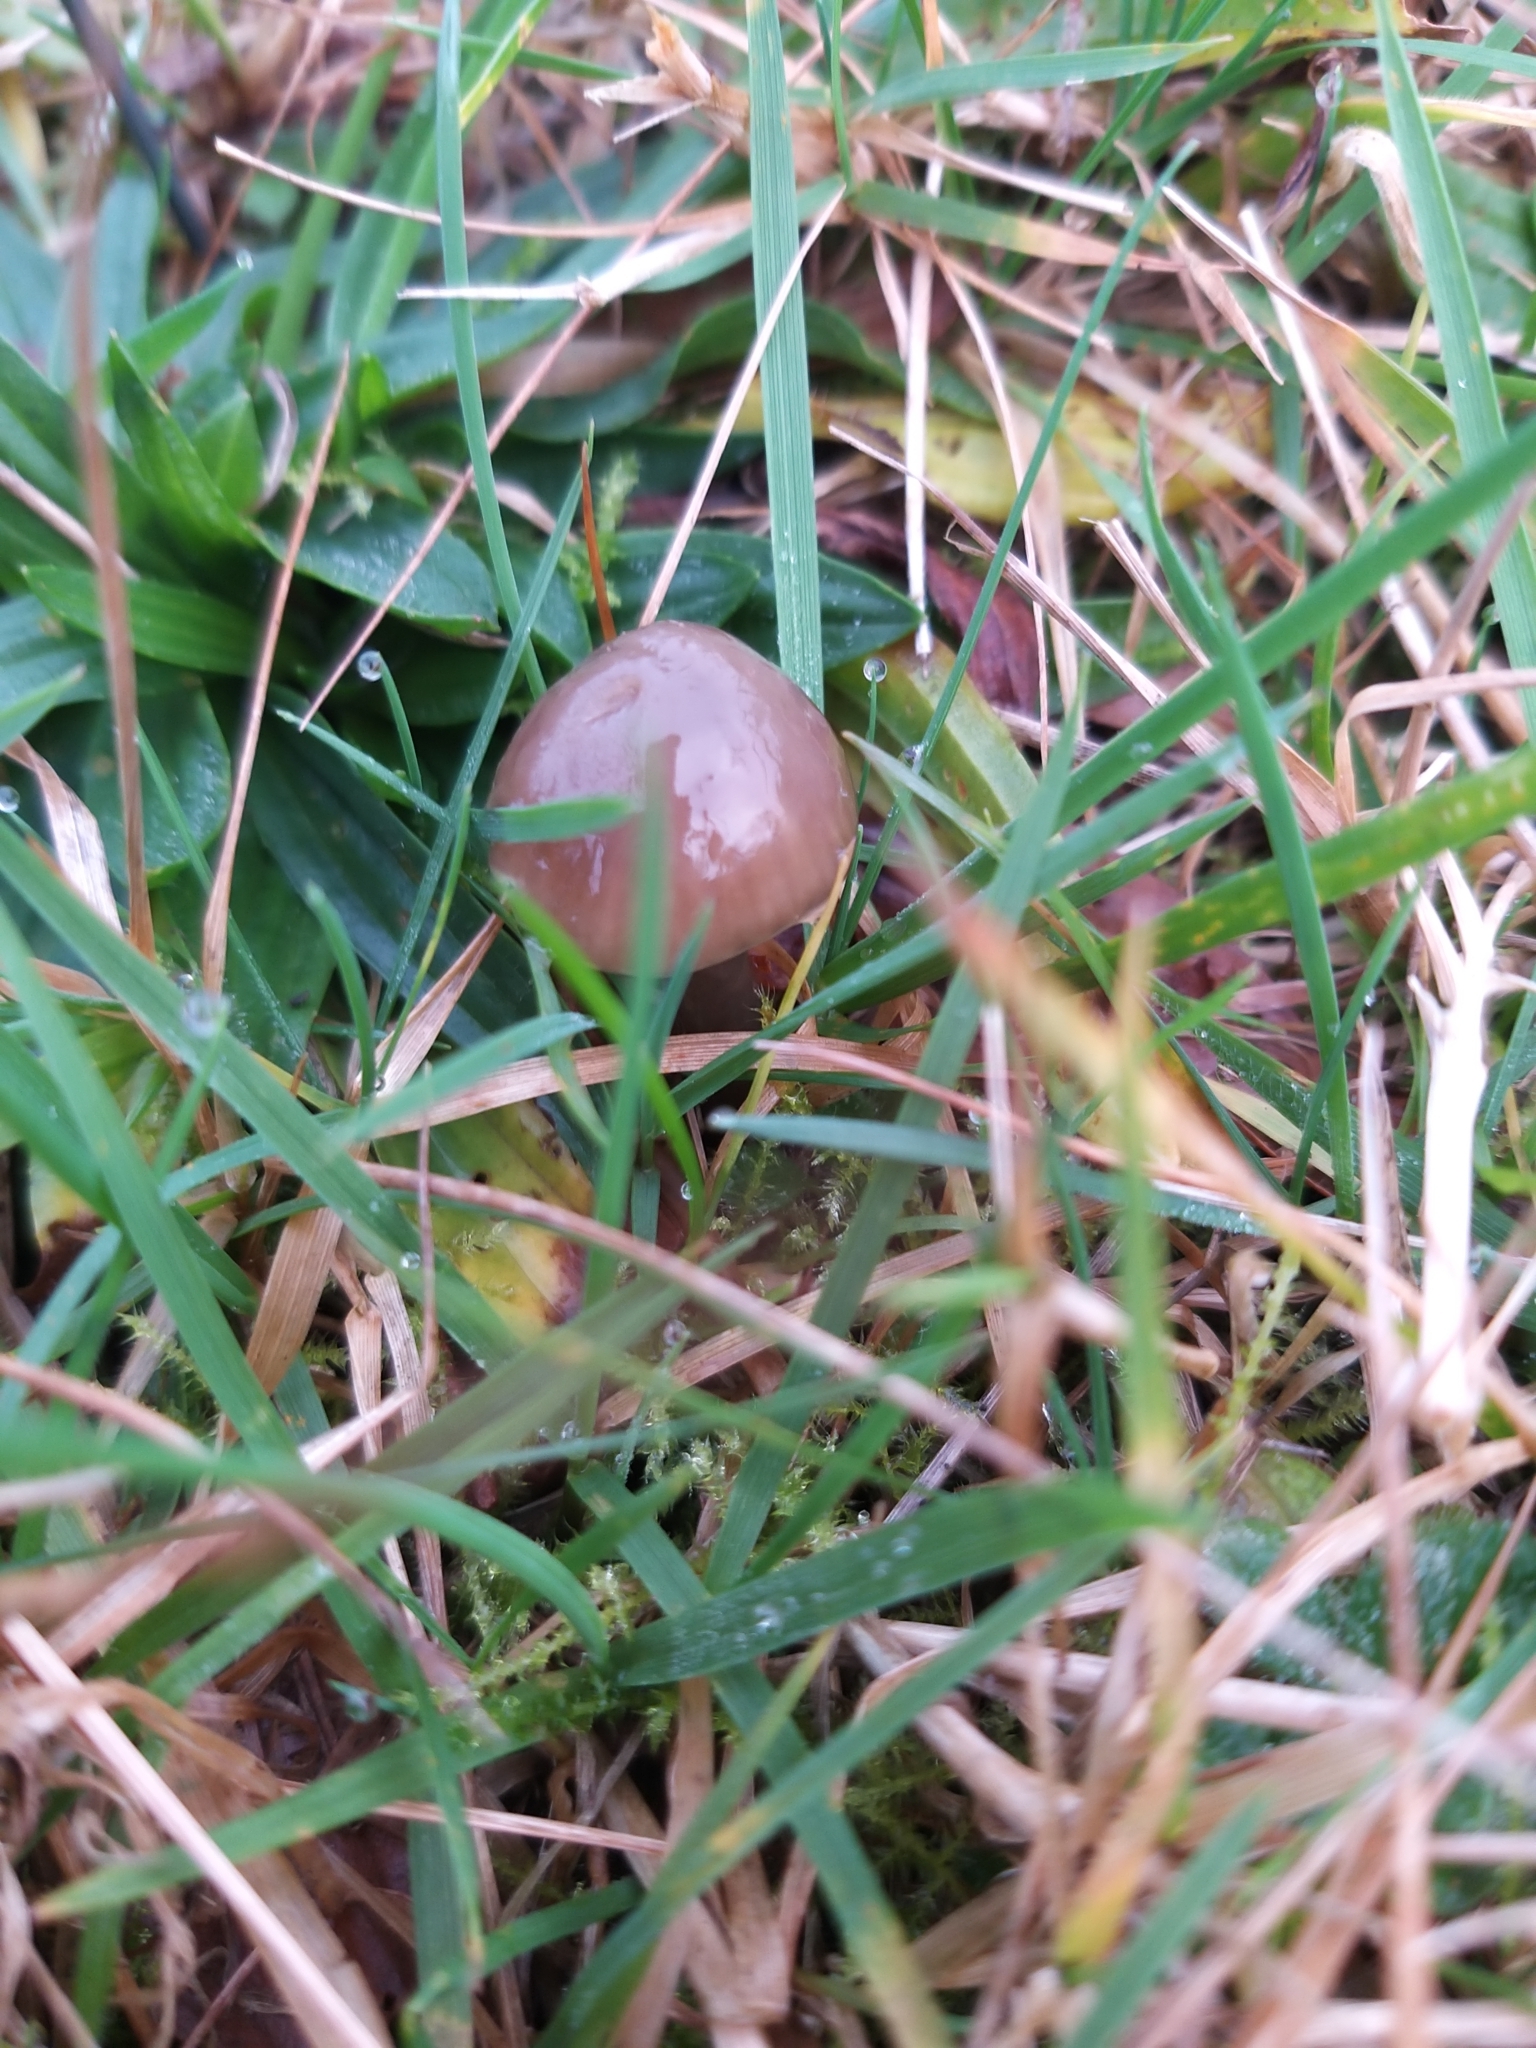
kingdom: Fungi
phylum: Basidiomycota
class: Agaricomycetes
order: Agaricales
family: Hygrophoraceae
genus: Gliophorus
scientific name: Gliophorus irrigatus
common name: Slimy waxcap
